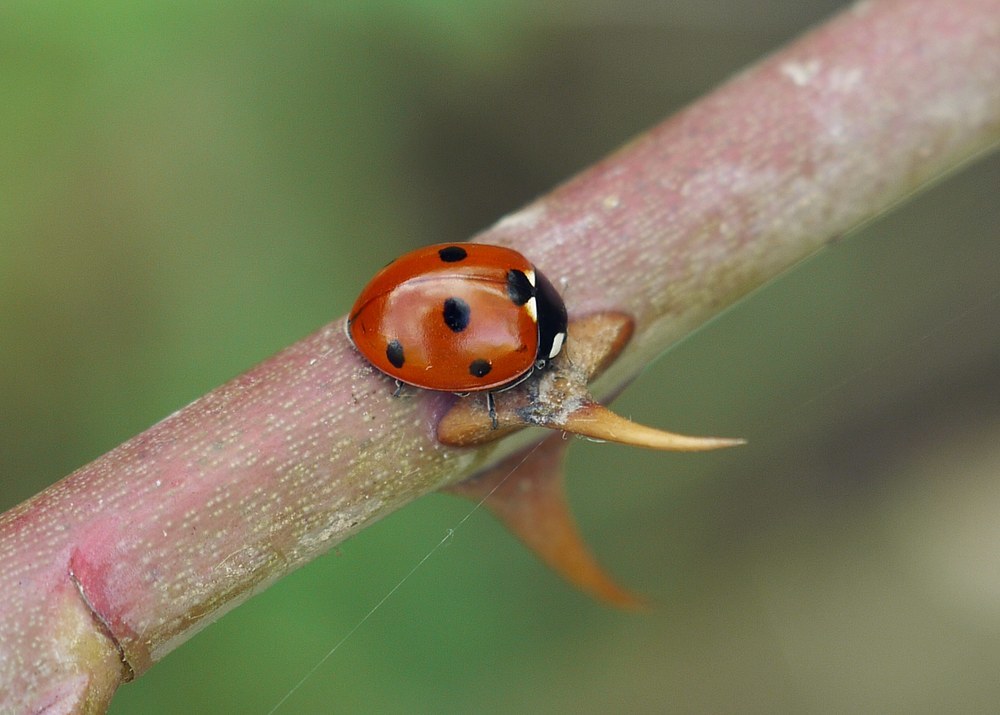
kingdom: Animalia
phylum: Arthropoda
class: Insecta
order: Coleoptera
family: Coccinellidae
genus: Coccinella
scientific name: Coccinella septempunctata
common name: Sevenspotted lady beetle
